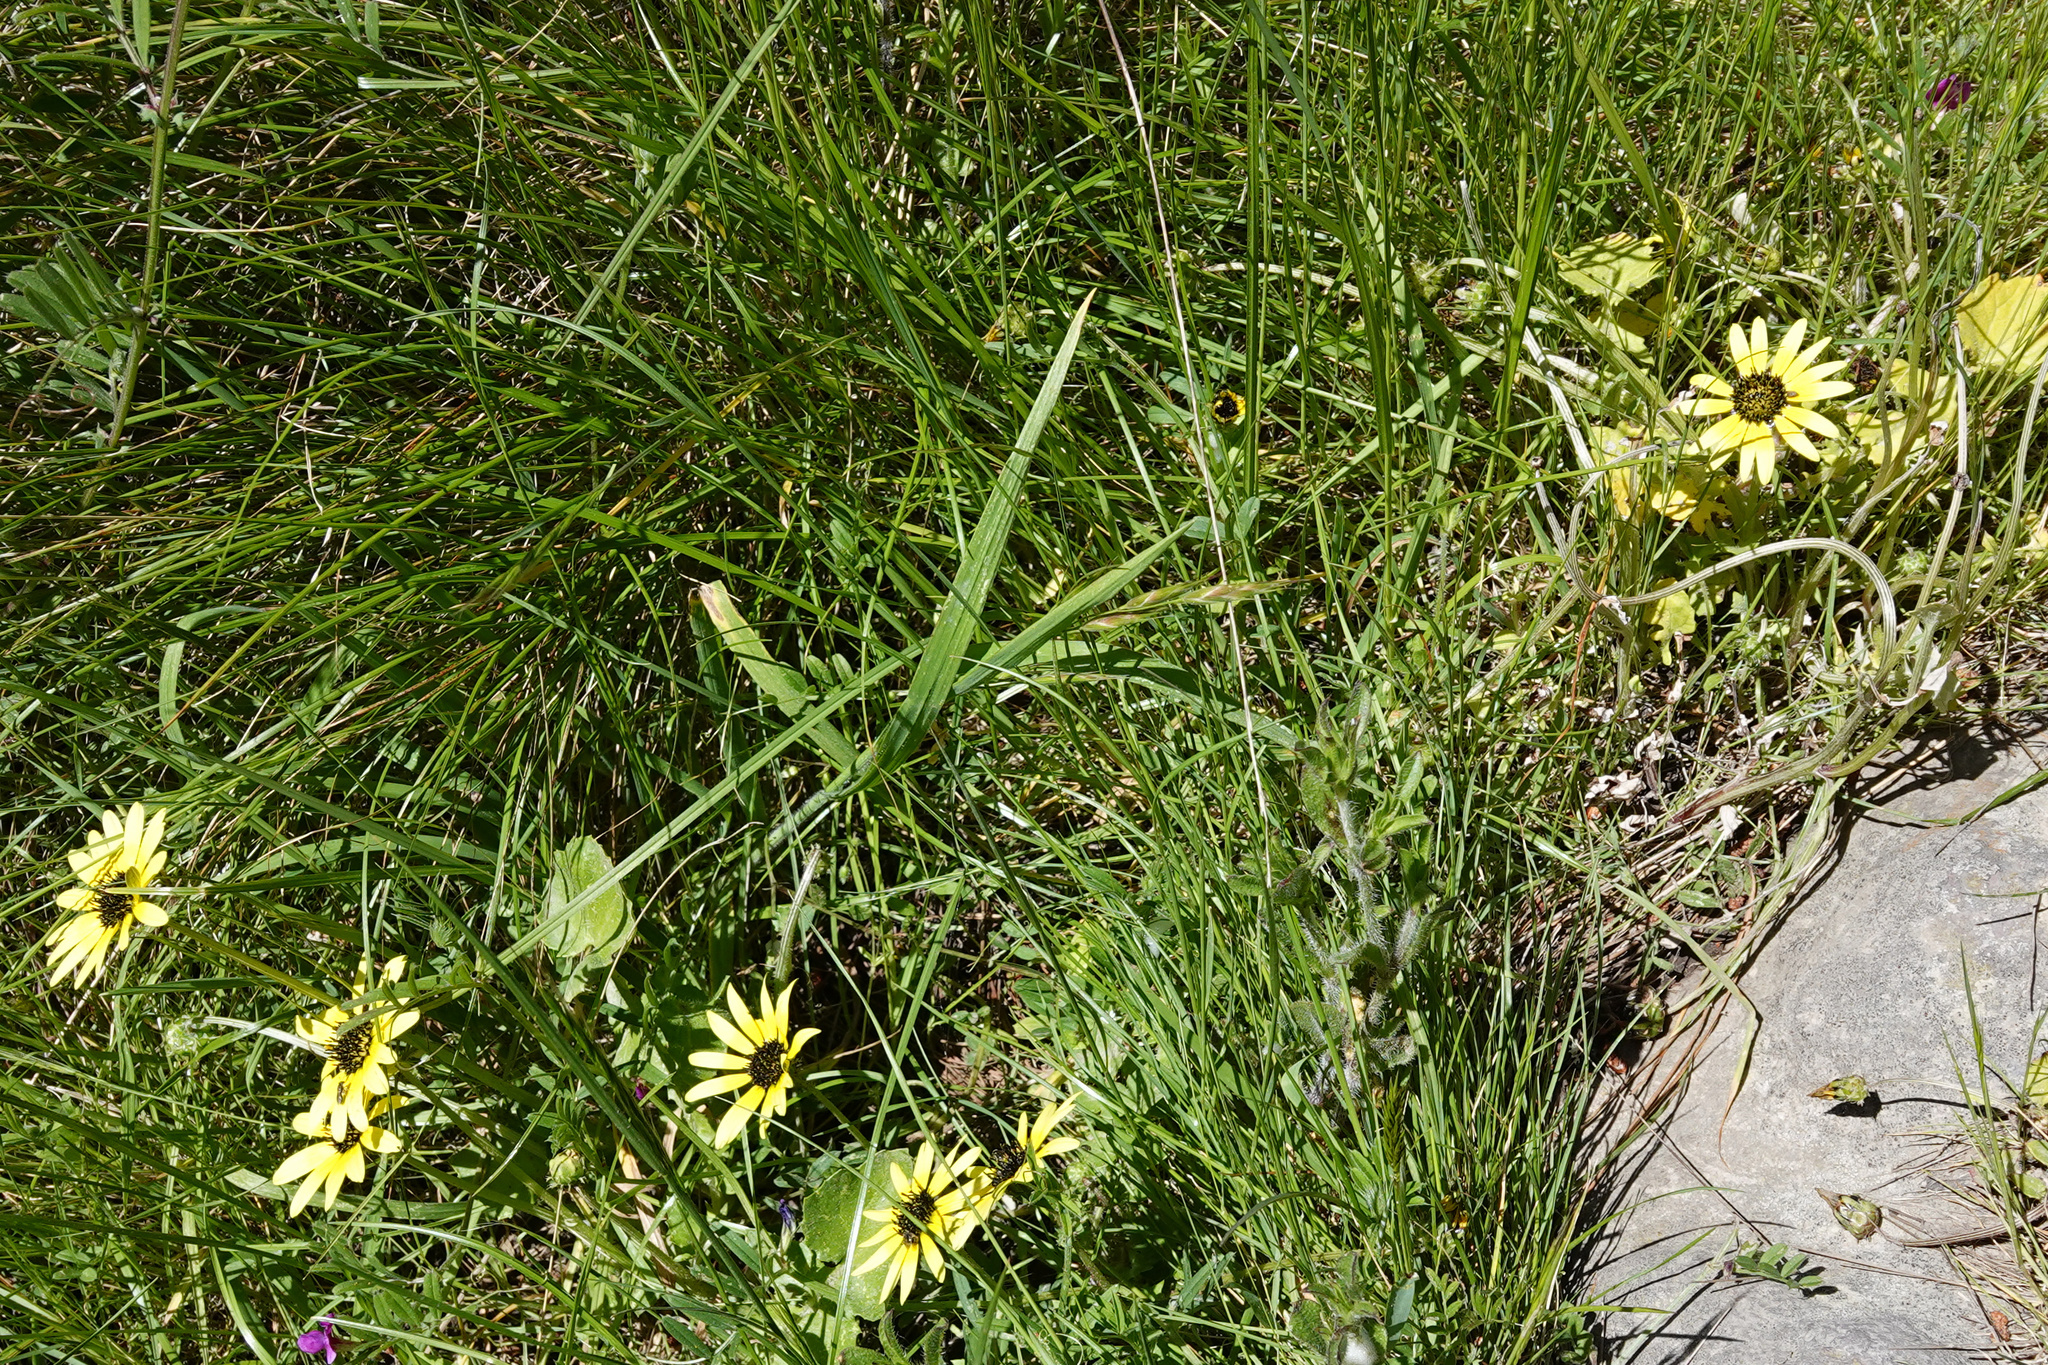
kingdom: Plantae
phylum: Tracheophyta
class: Magnoliopsida
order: Asterales
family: Asteraceae
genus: Arctotheca
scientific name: Arctotheca calendula
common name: Capeweed
